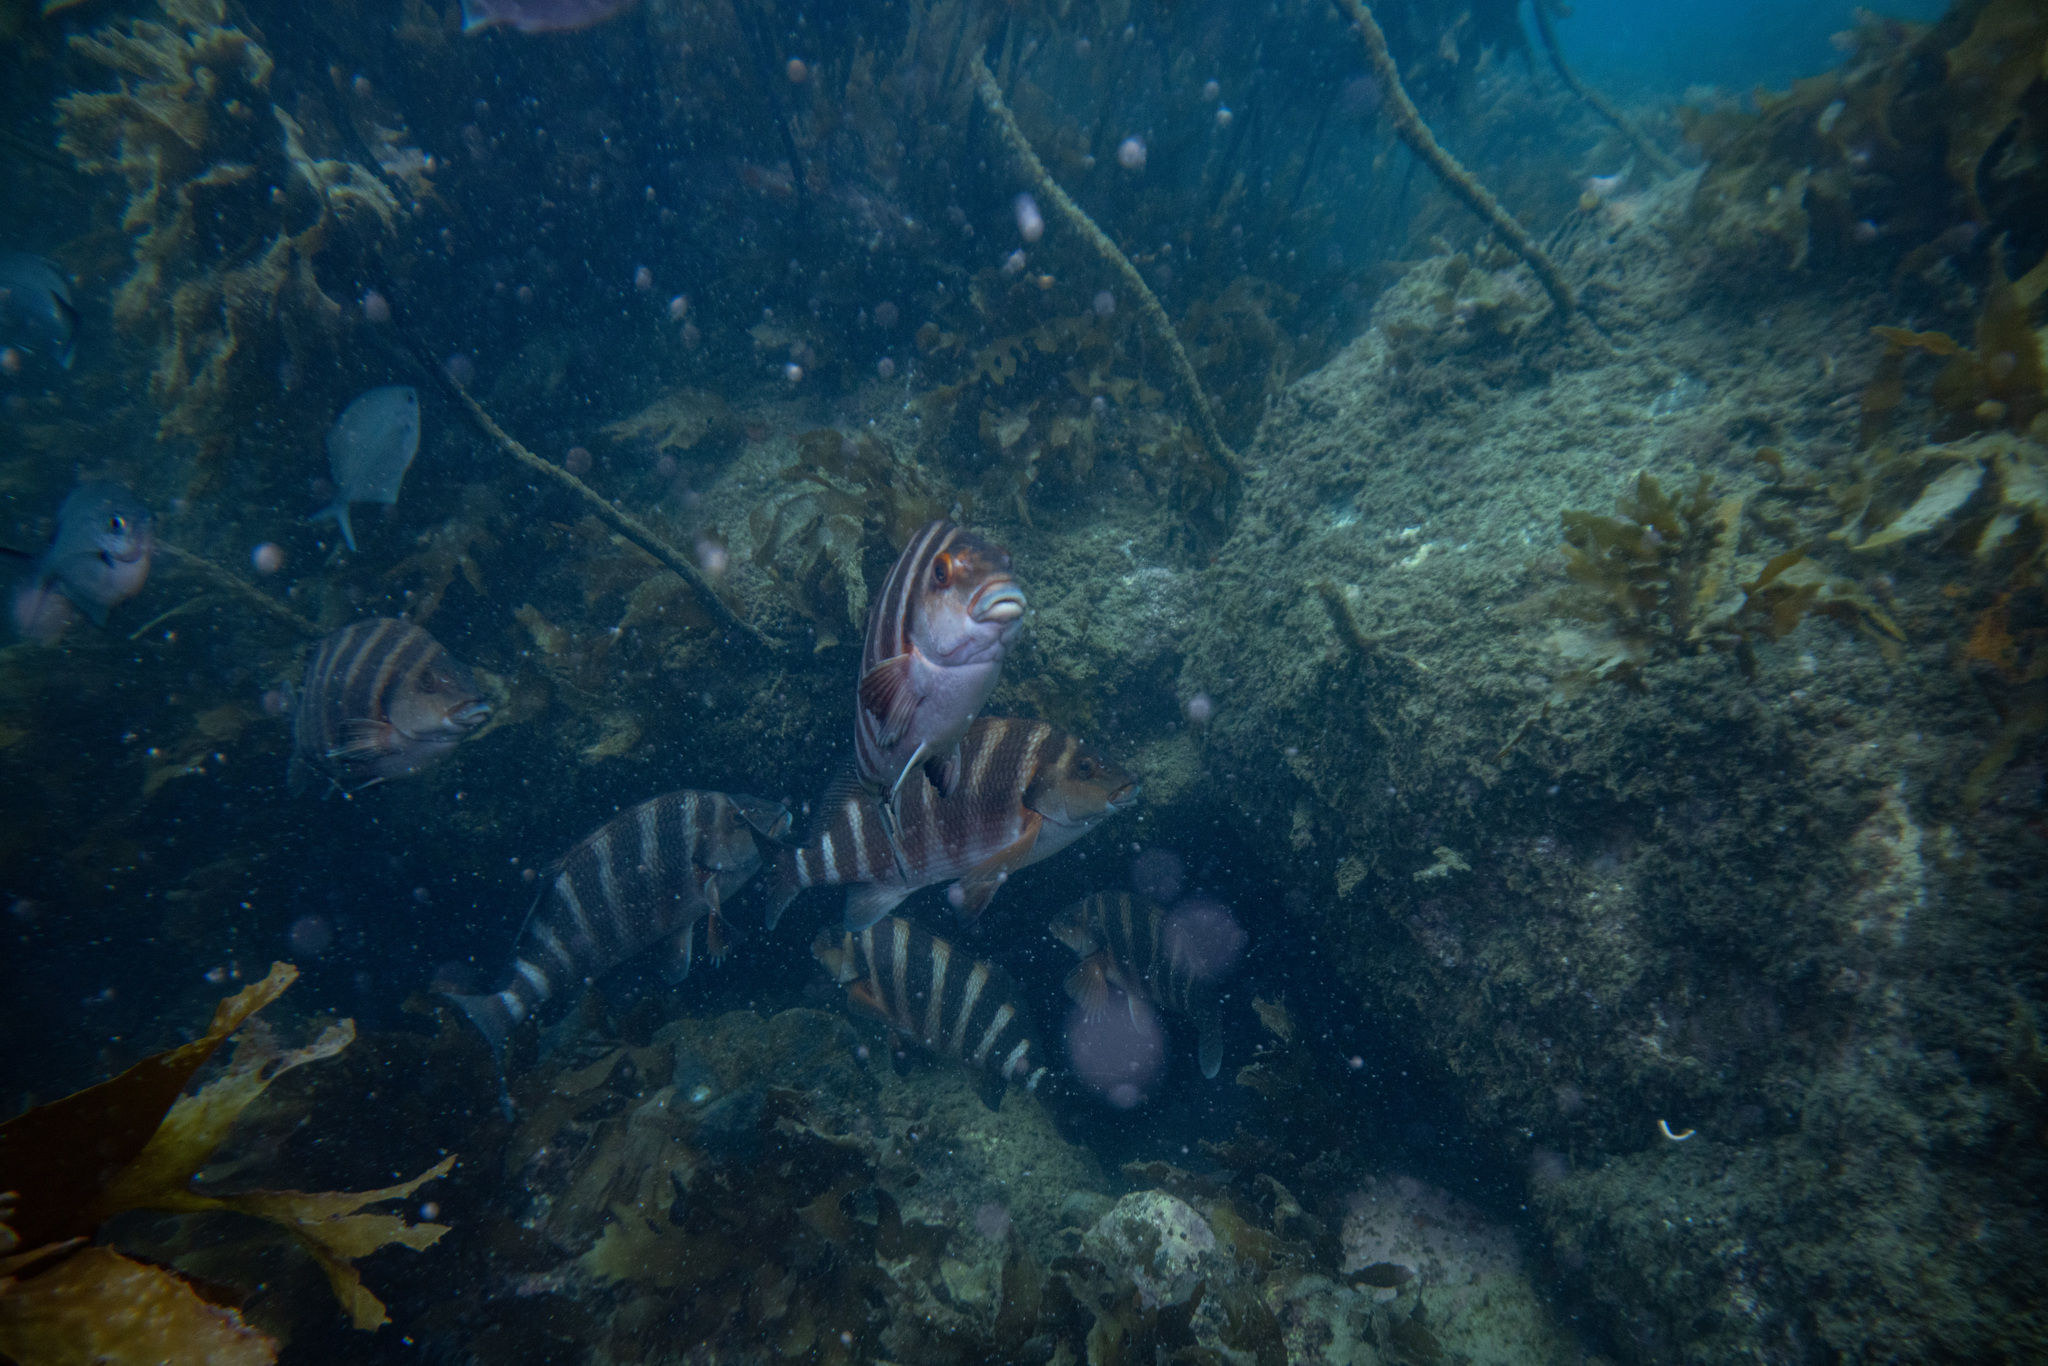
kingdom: Animalia
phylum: Chordata
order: Perciformes
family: Cheilodactylidae
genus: Cheilodactylus
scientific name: Cheilodactylus spectabilis
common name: Red moki
